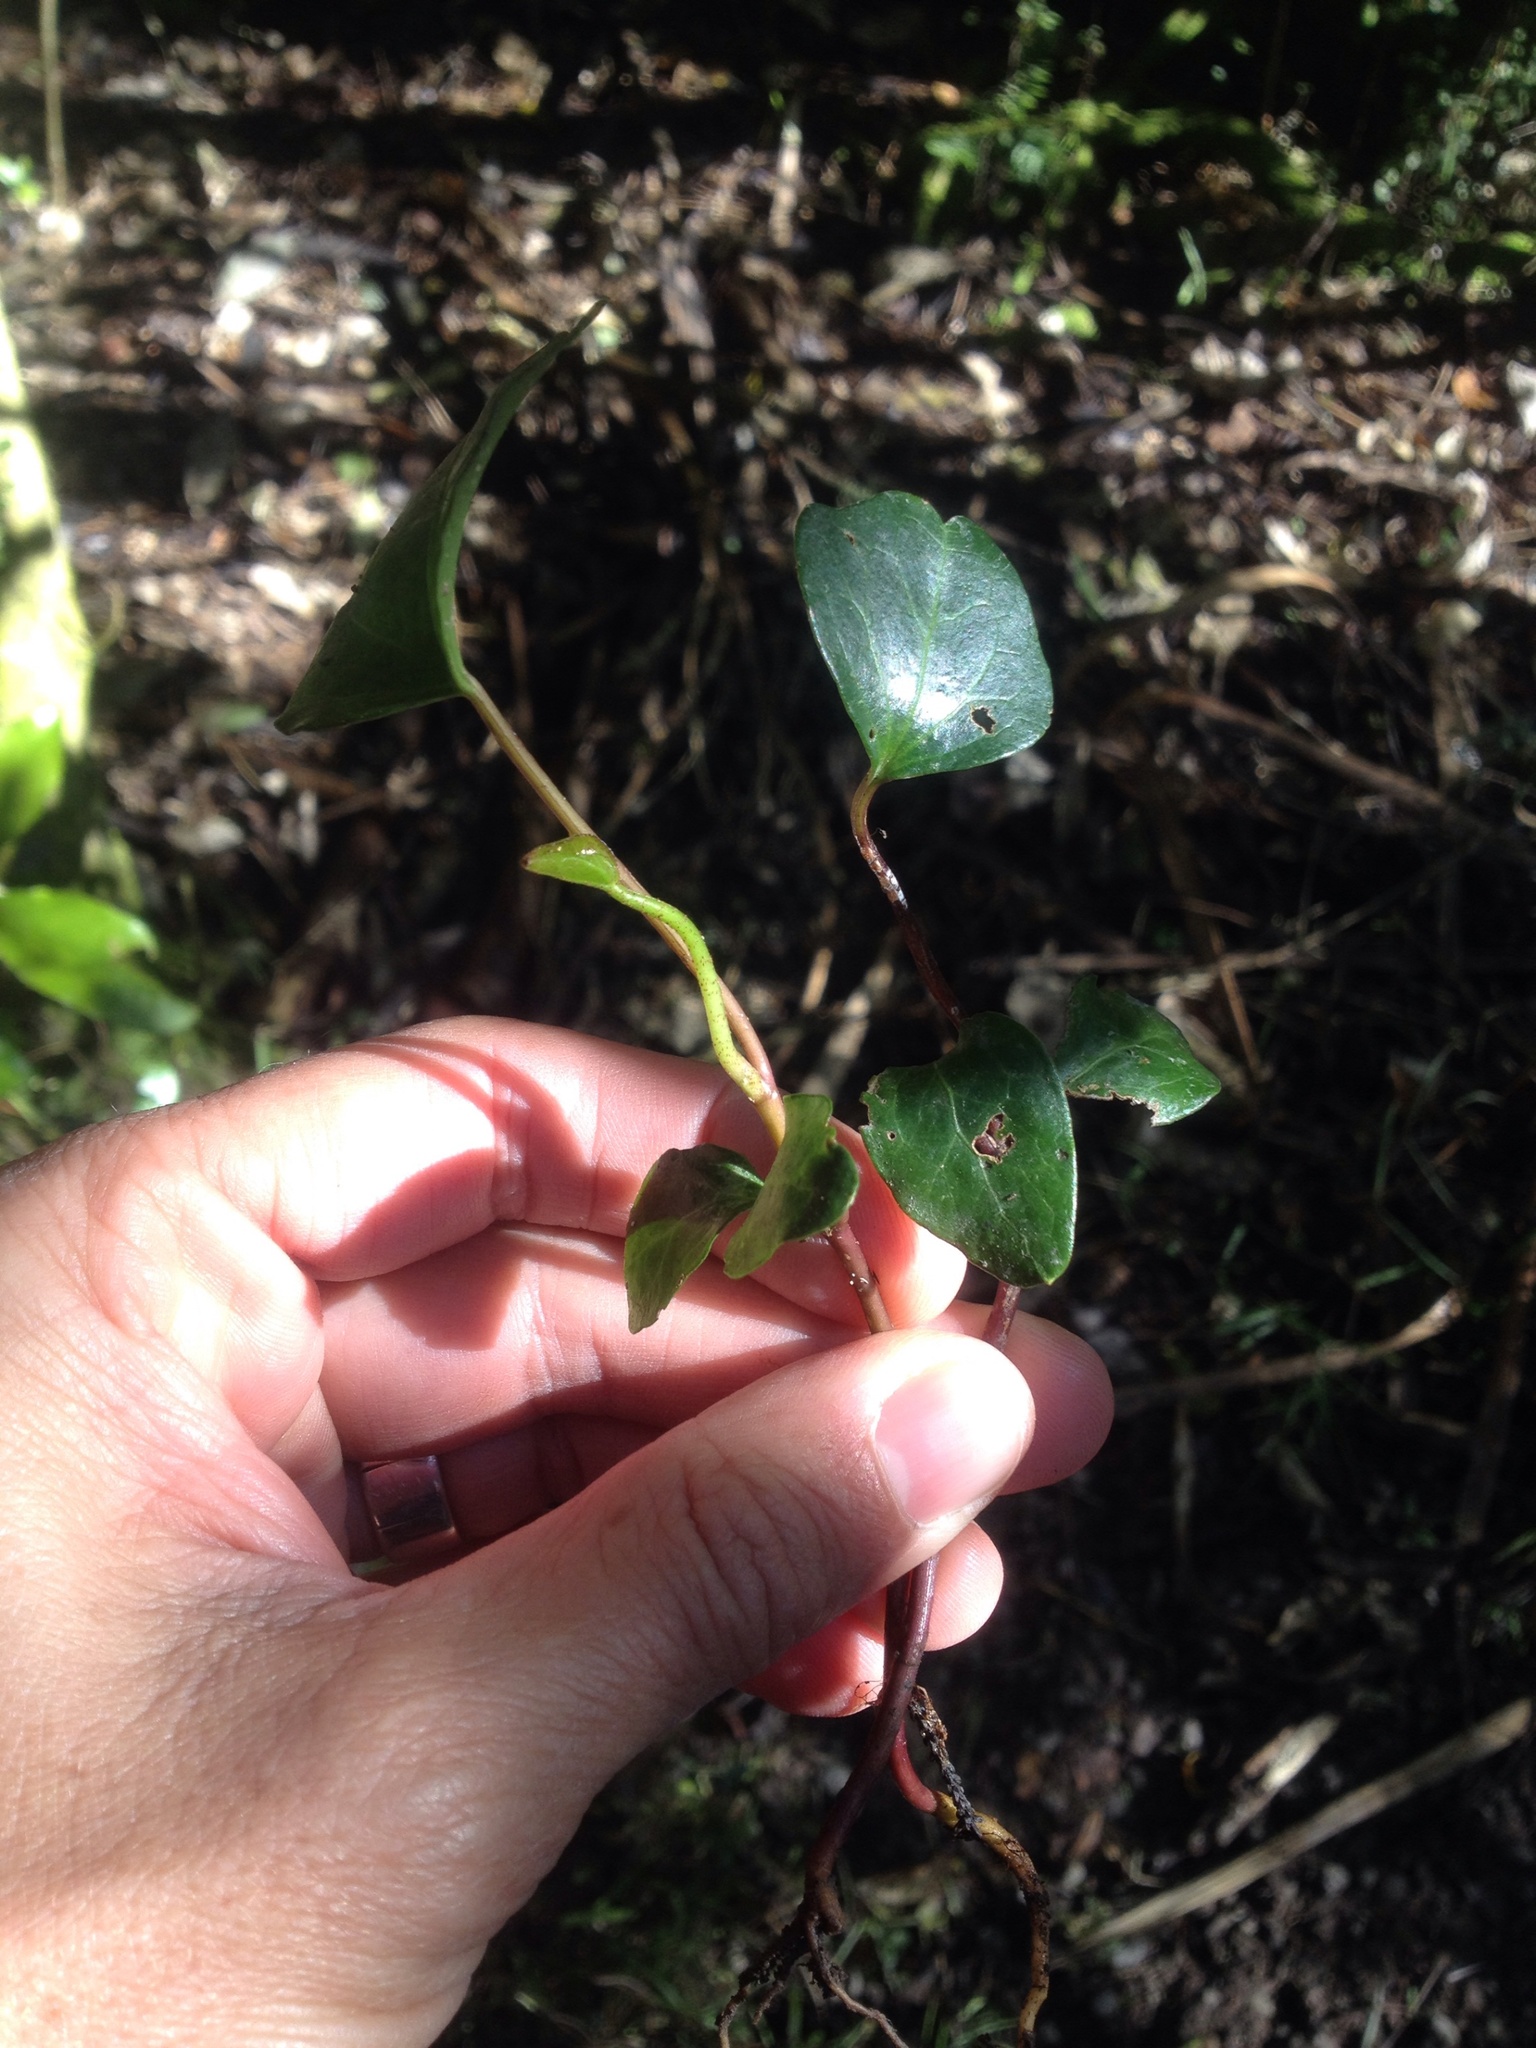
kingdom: Plantae
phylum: Tracheophyta
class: Magnoliopsida
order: Apiales
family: Araliaceae
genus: Hedera
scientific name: Hedera helix
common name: Ivy
